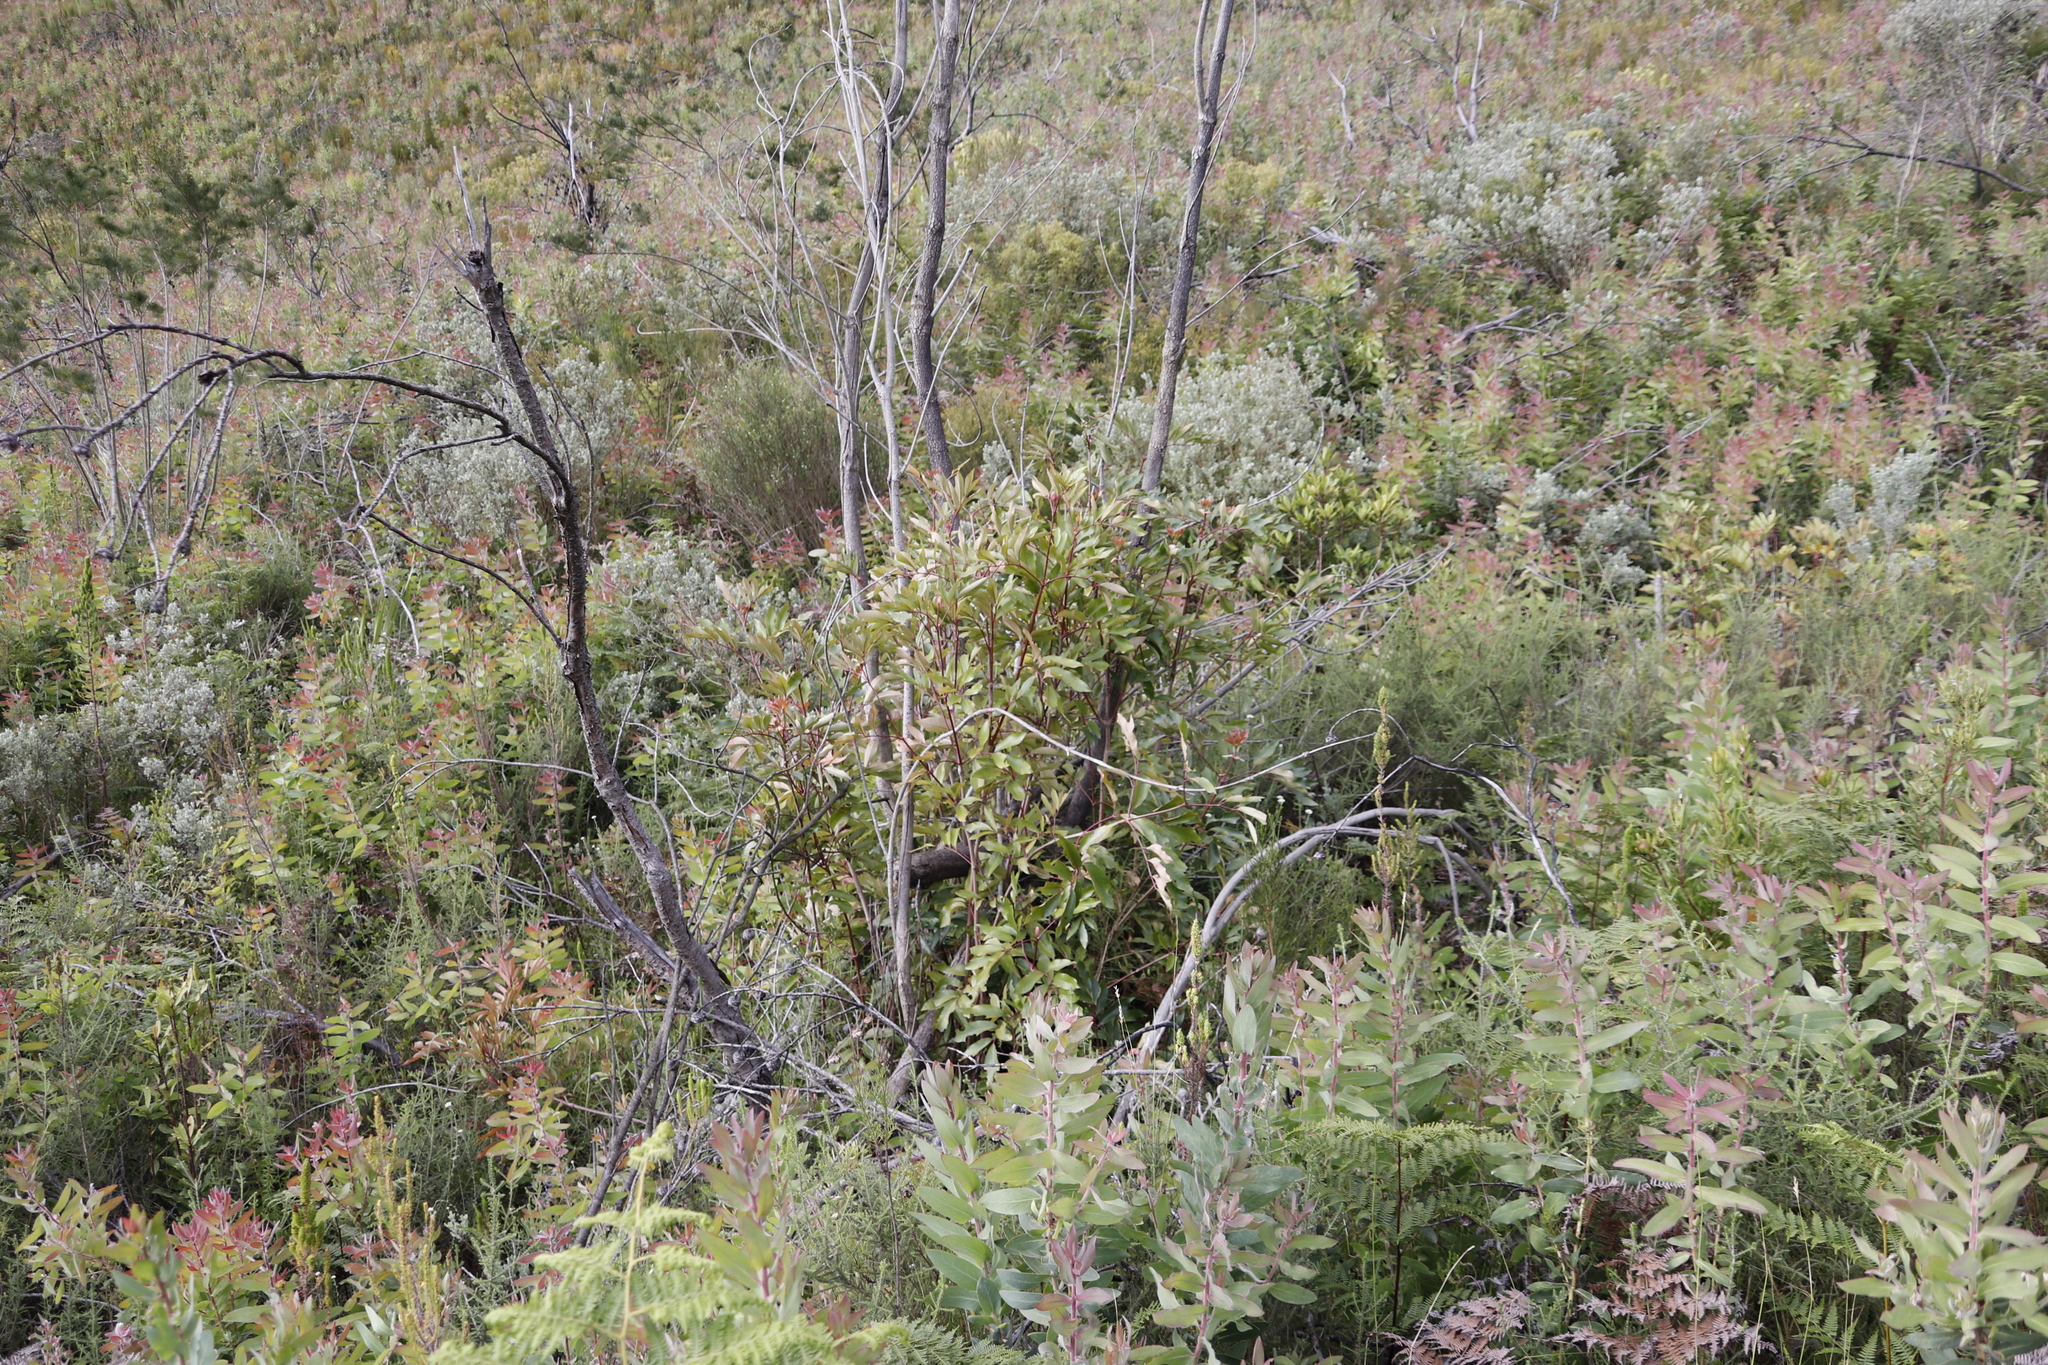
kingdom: Plantae
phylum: Tracheophyta
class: Magnoliopsida
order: Oxalidales
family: Cunoniaceae
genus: Cunonia
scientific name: Cunonia capensis
